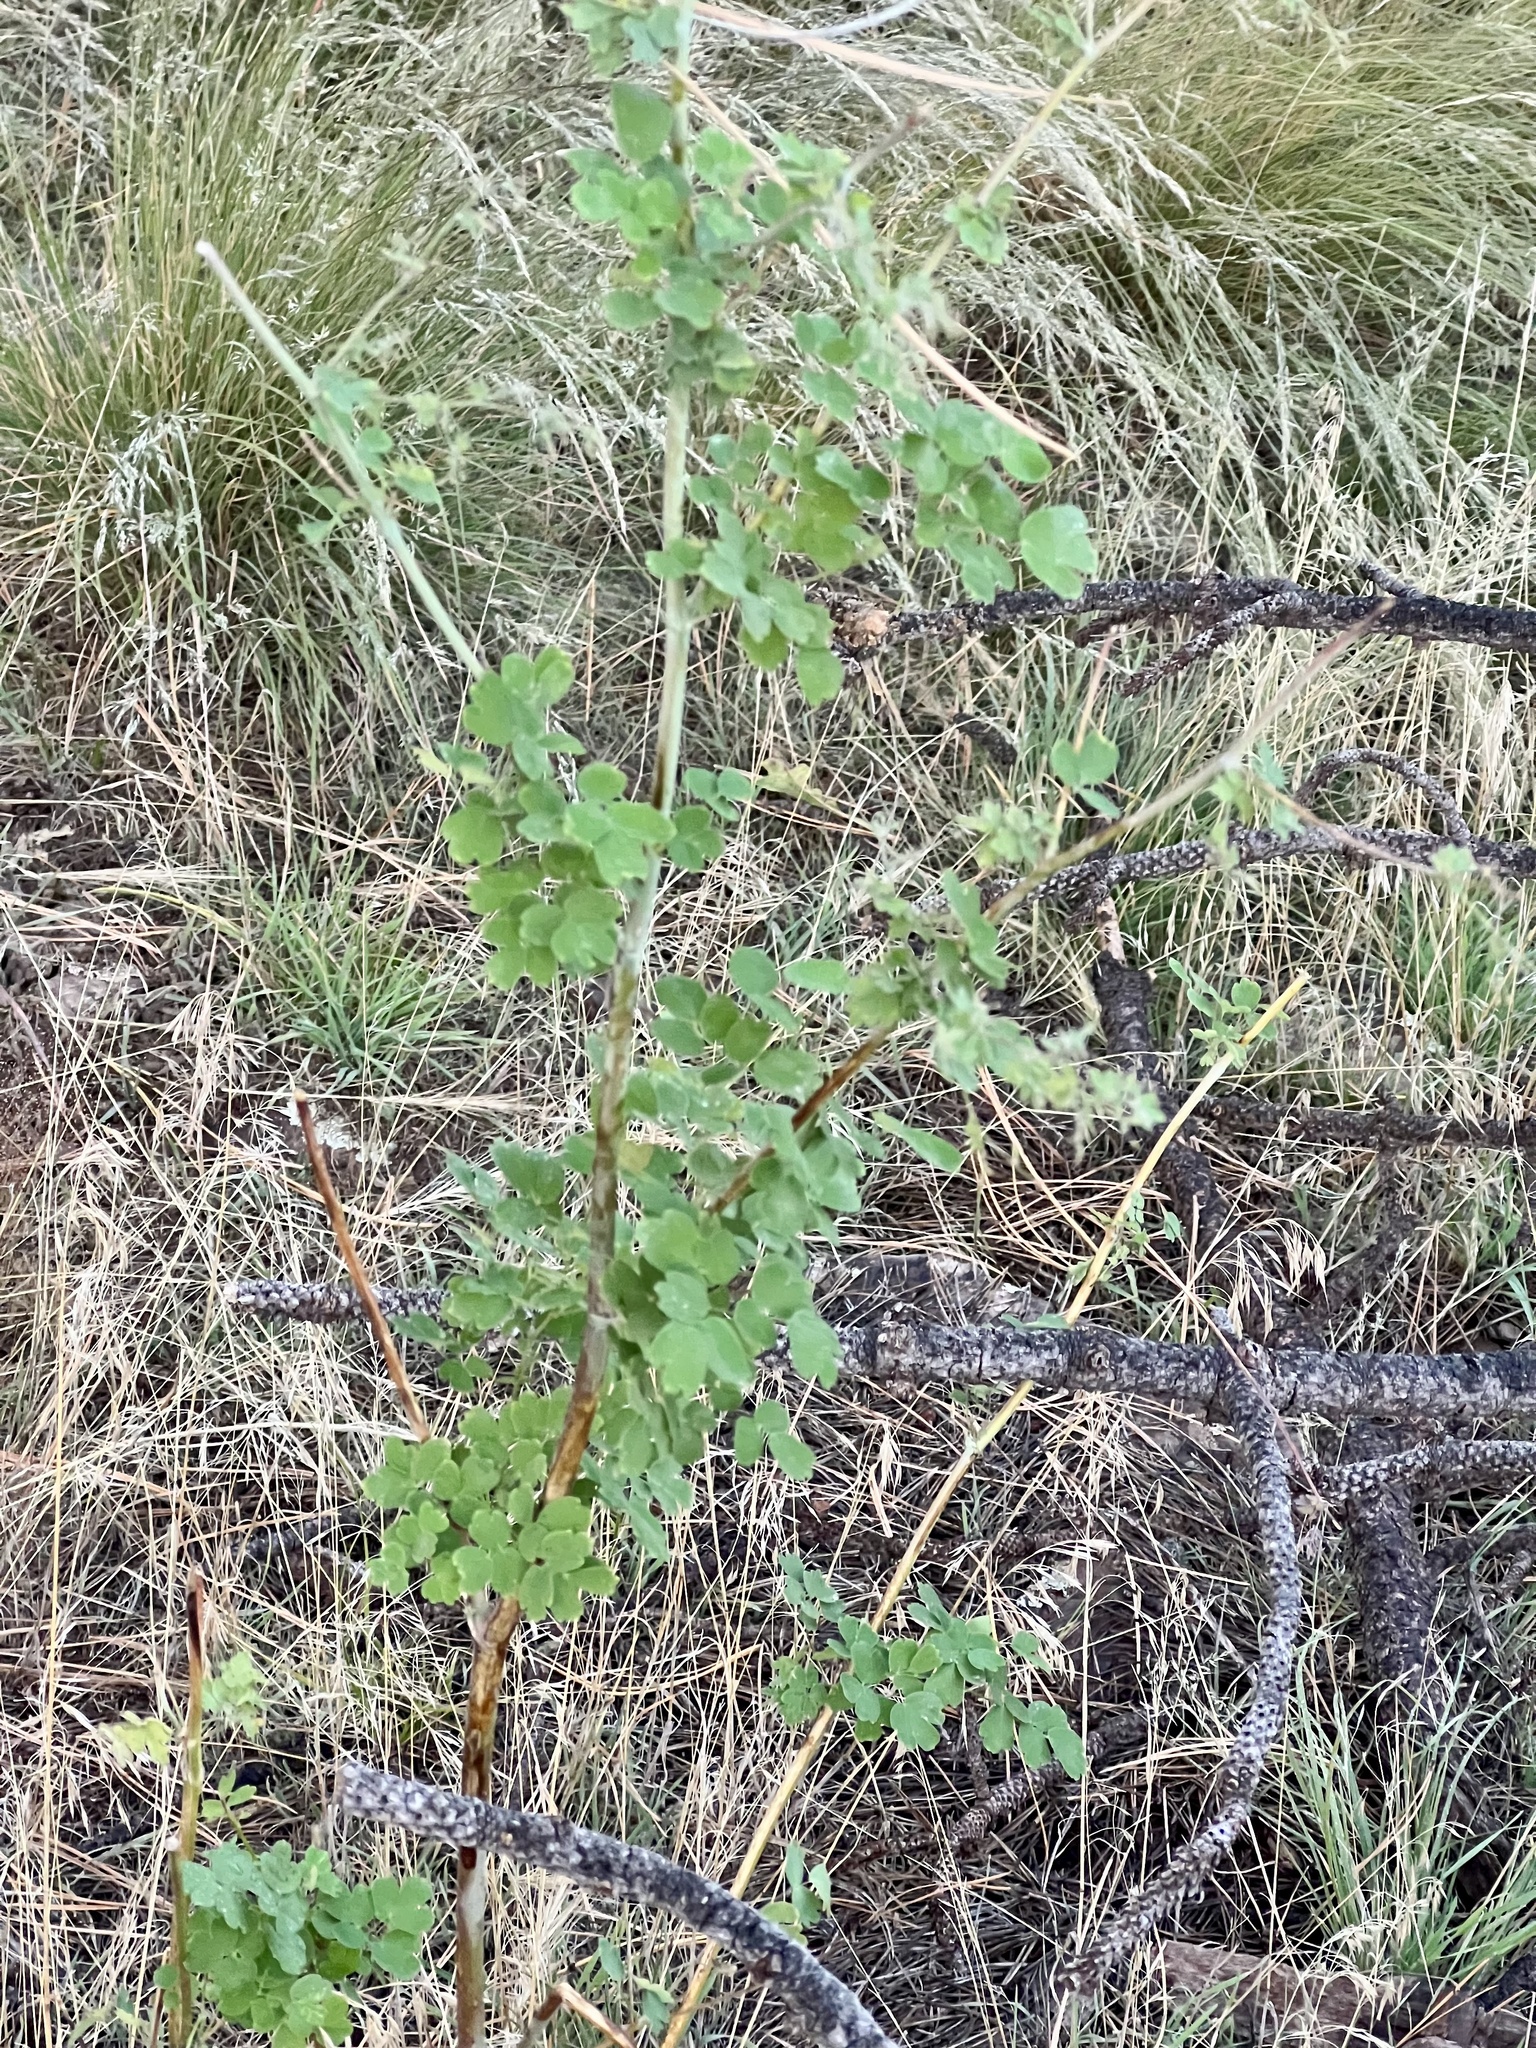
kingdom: Plantae
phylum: Tracheophyta
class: Magnoliopsida
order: Ranunculales
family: Ranunculaceae
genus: Thalictrum
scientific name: Thalictrum fendleri
